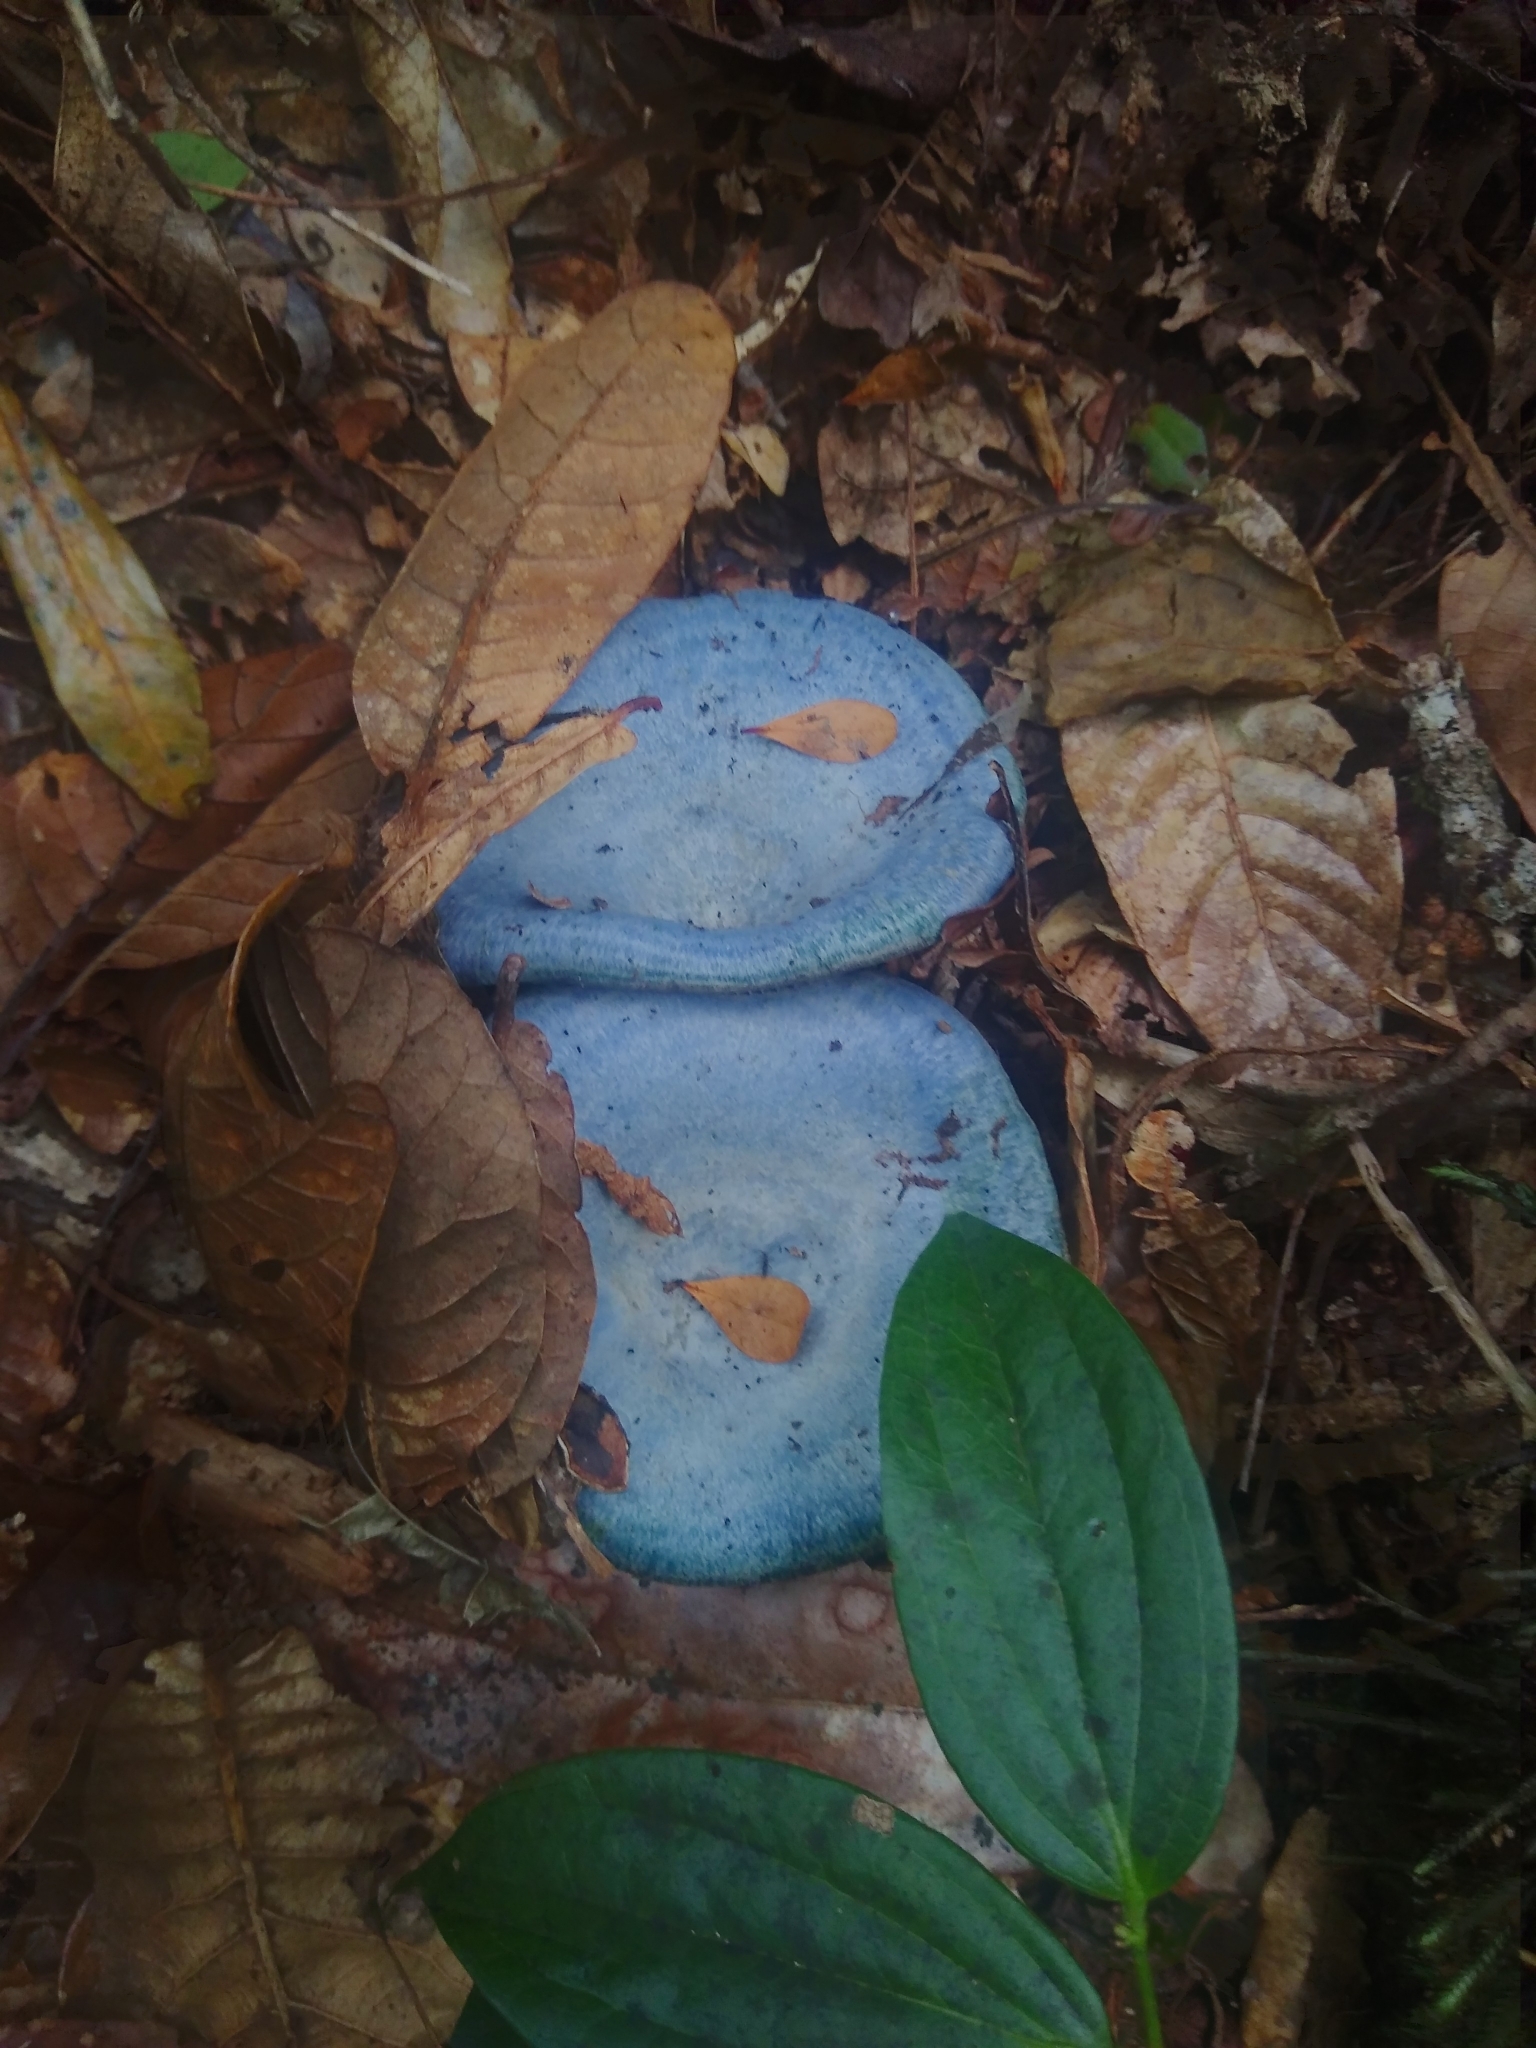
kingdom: Fungi
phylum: Basidiomycota
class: Agaricomycetes
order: Russulales
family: Russulaceae
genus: Lactarius
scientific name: Lactarius indigo
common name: Indigo milk cap
